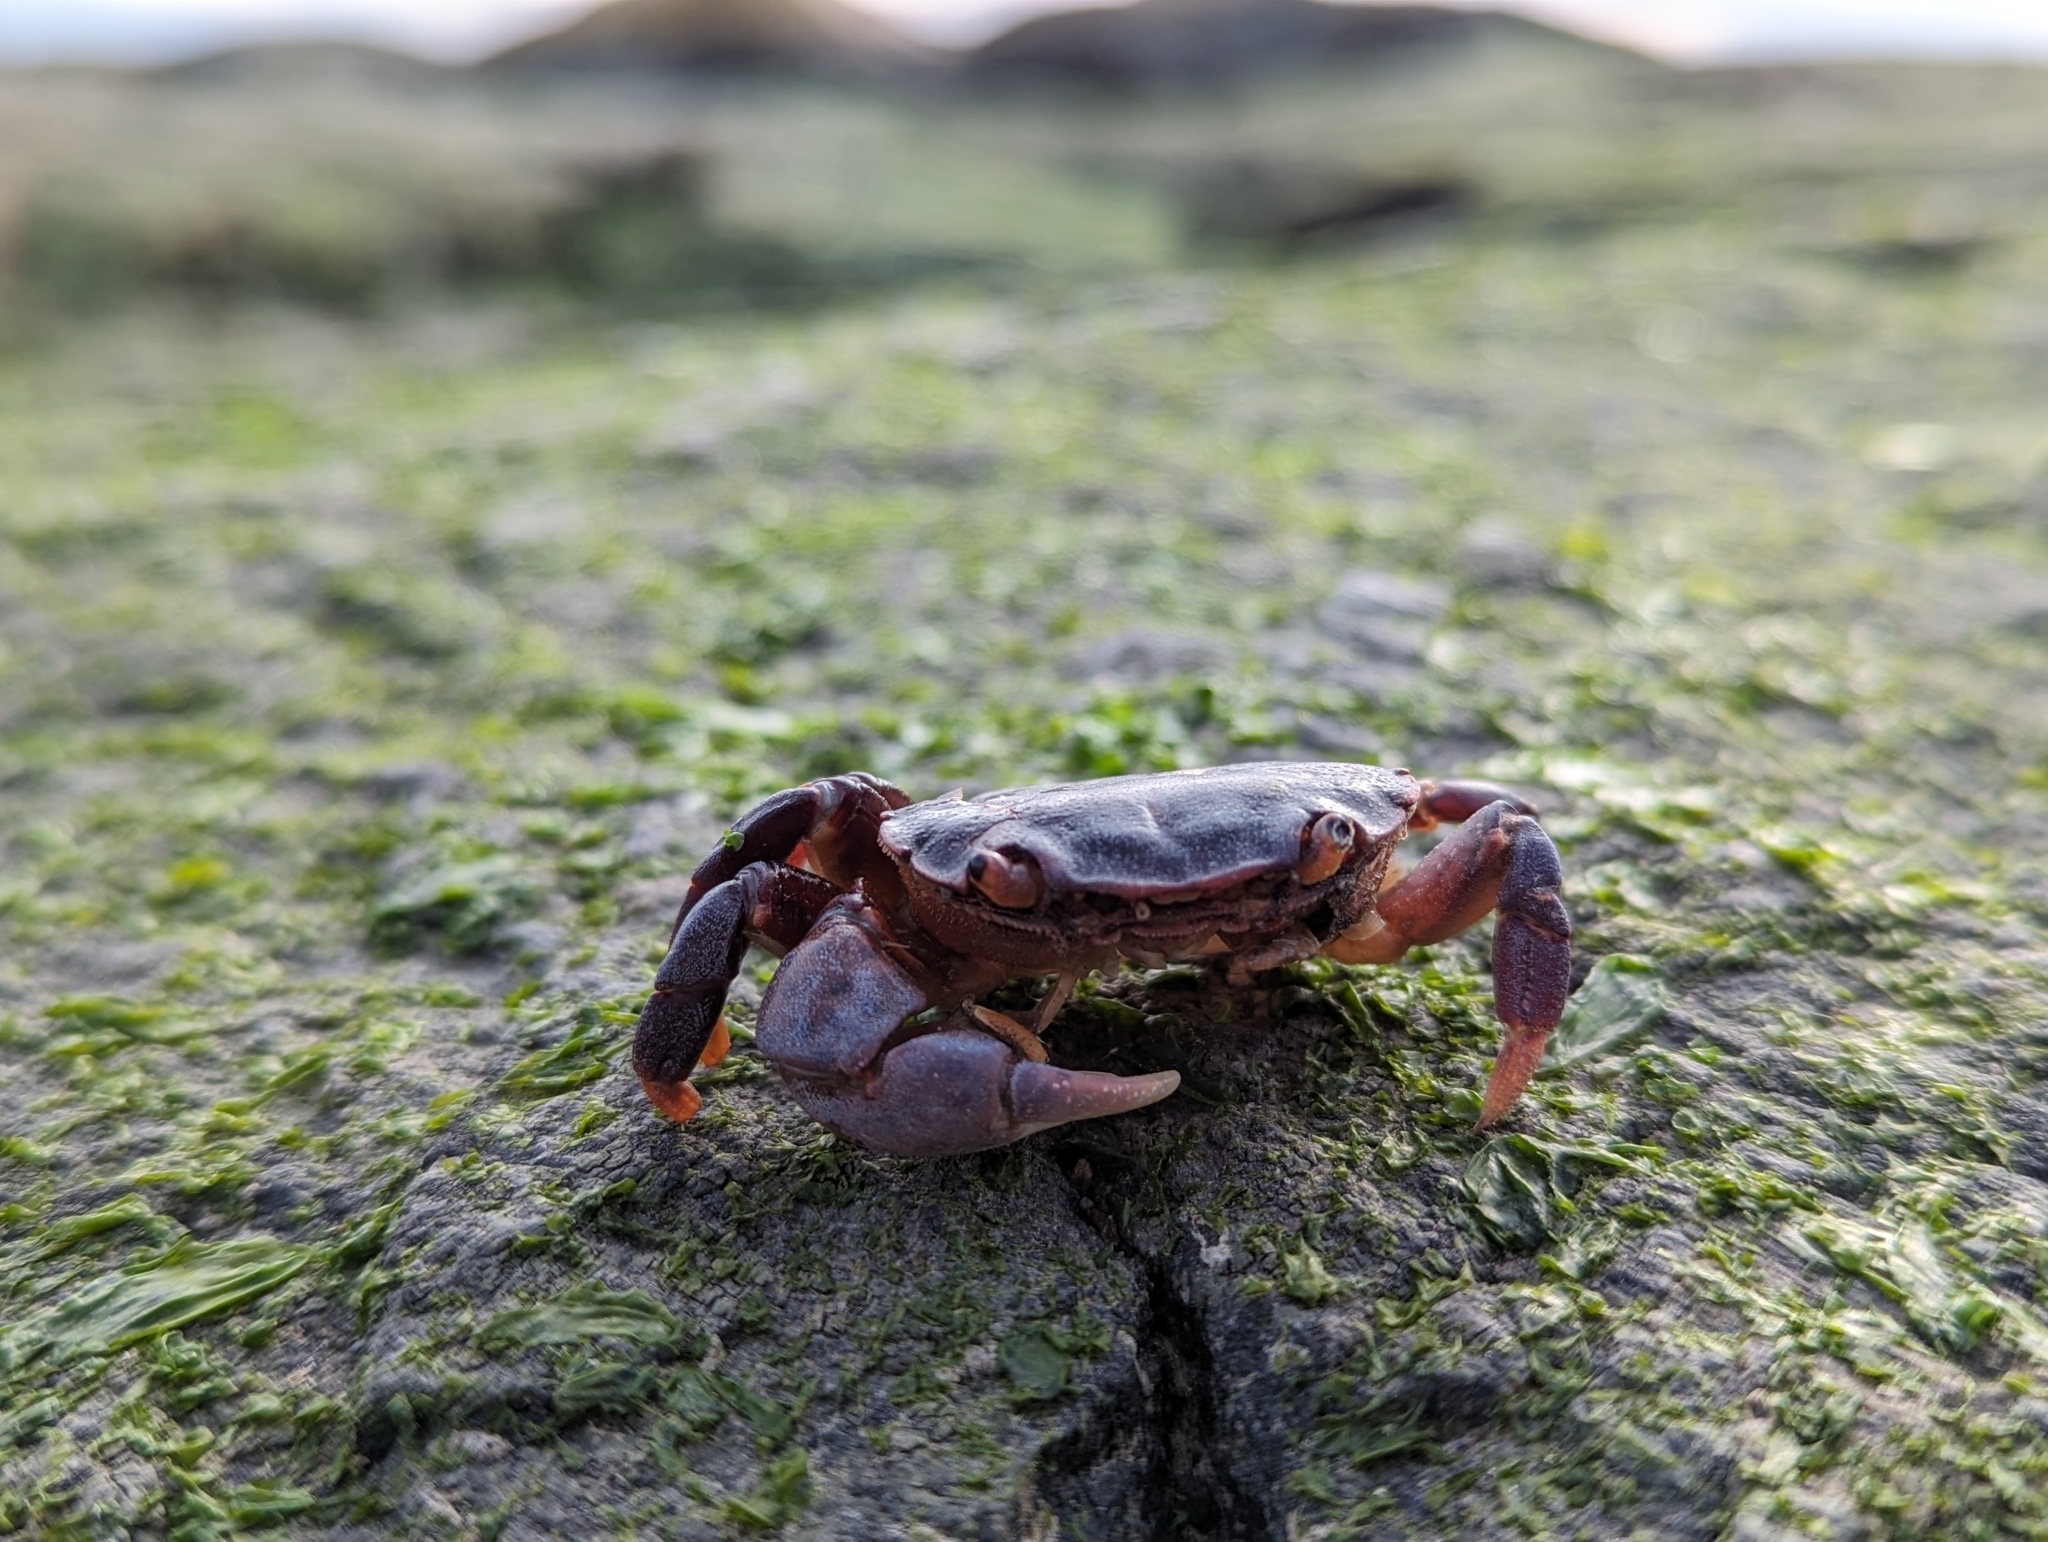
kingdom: Animalia
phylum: Arthropoda
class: Malacostraca
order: Decapoda
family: Varunidae
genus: Hemigrapsus
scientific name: Hemigrapsus nudus
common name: Purple shore crab
